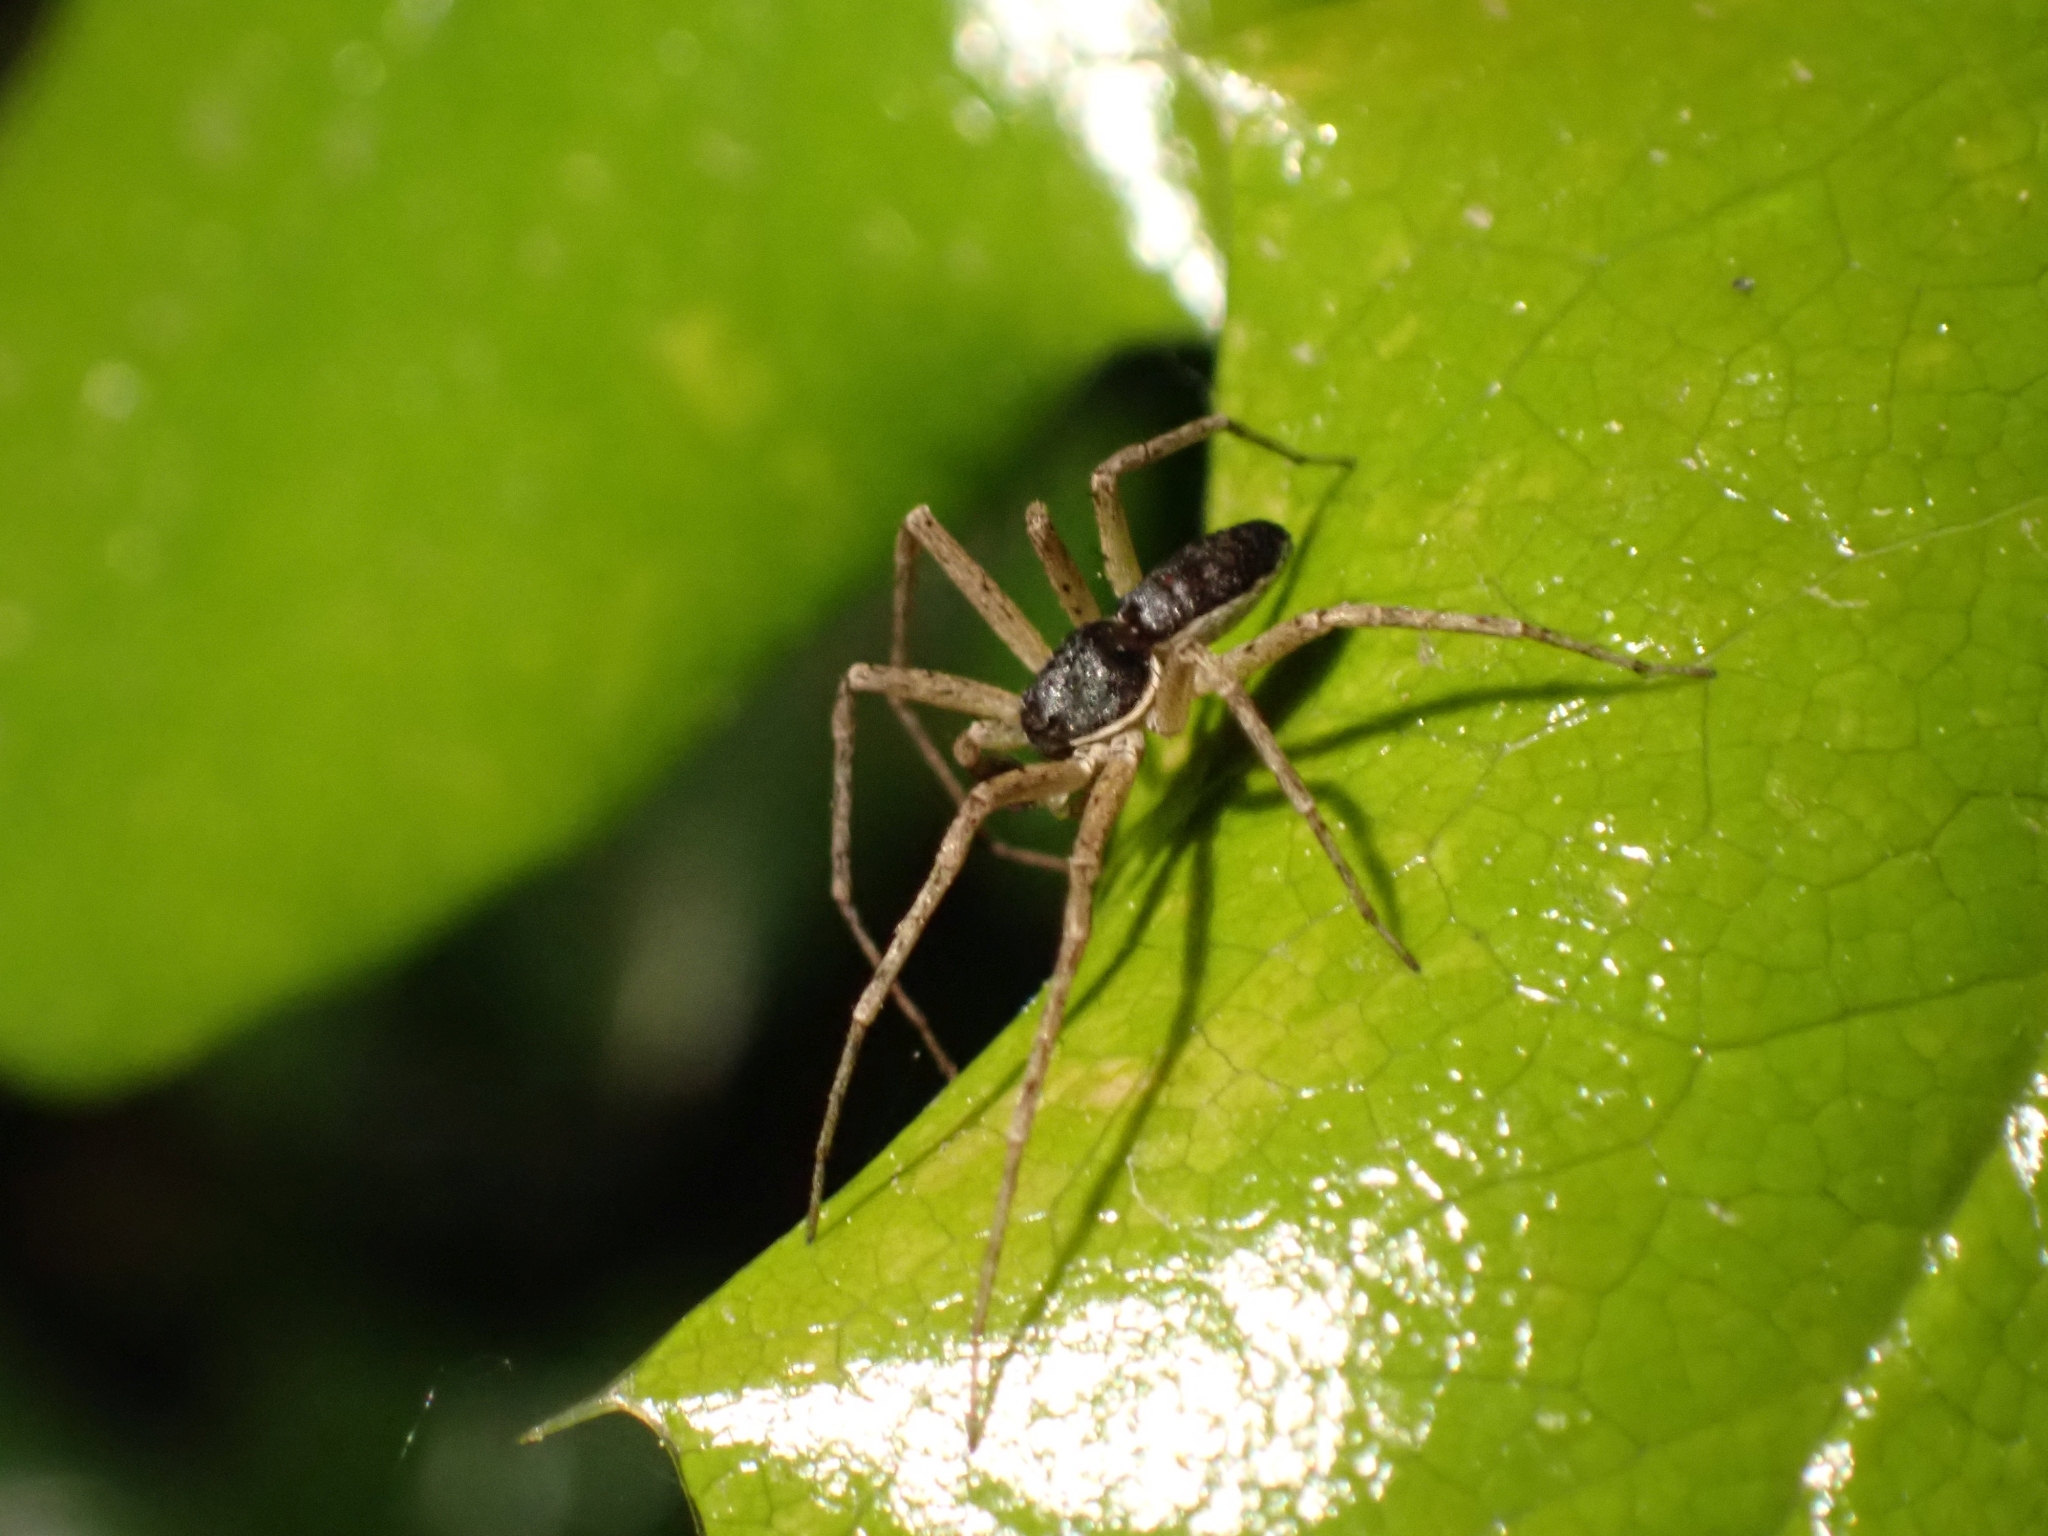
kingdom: Animalia
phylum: Arthropoda
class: Arachnida
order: Araneae
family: Philodromidae
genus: Philodromus
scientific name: Philodromus dispar
